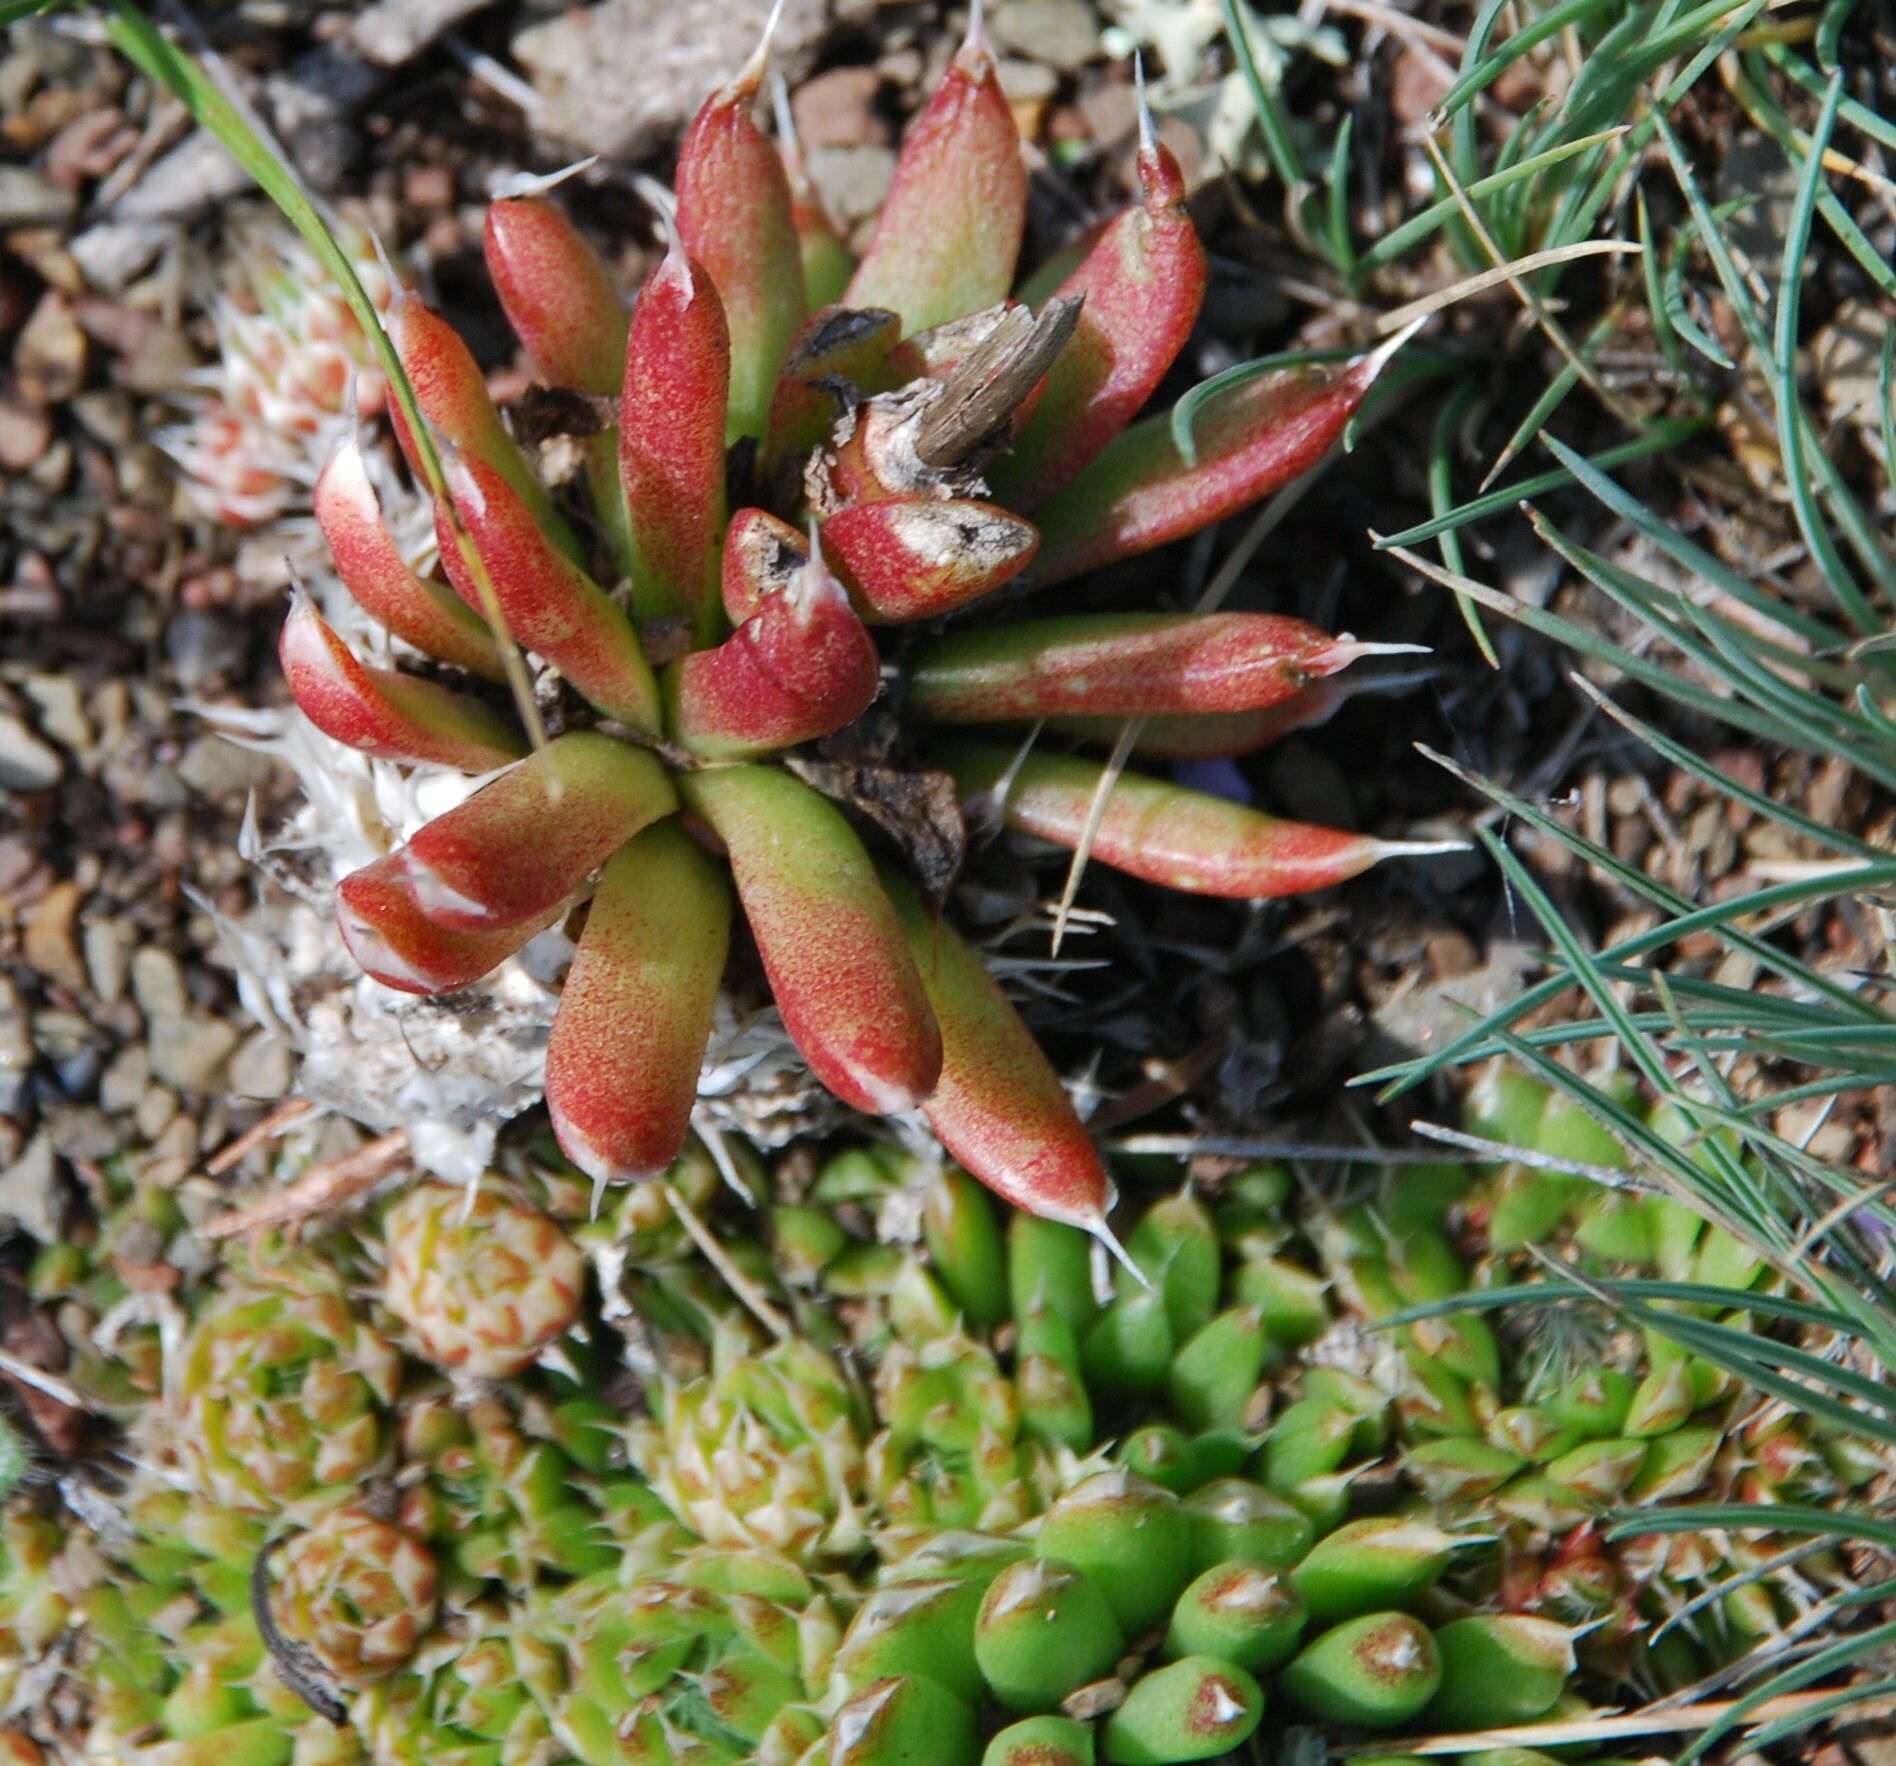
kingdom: Plantae
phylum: Tracheophyta
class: Magnoliopsida
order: Saxifragales
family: Crassulaceae
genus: Orostachys
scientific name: Orostachys spinosa
